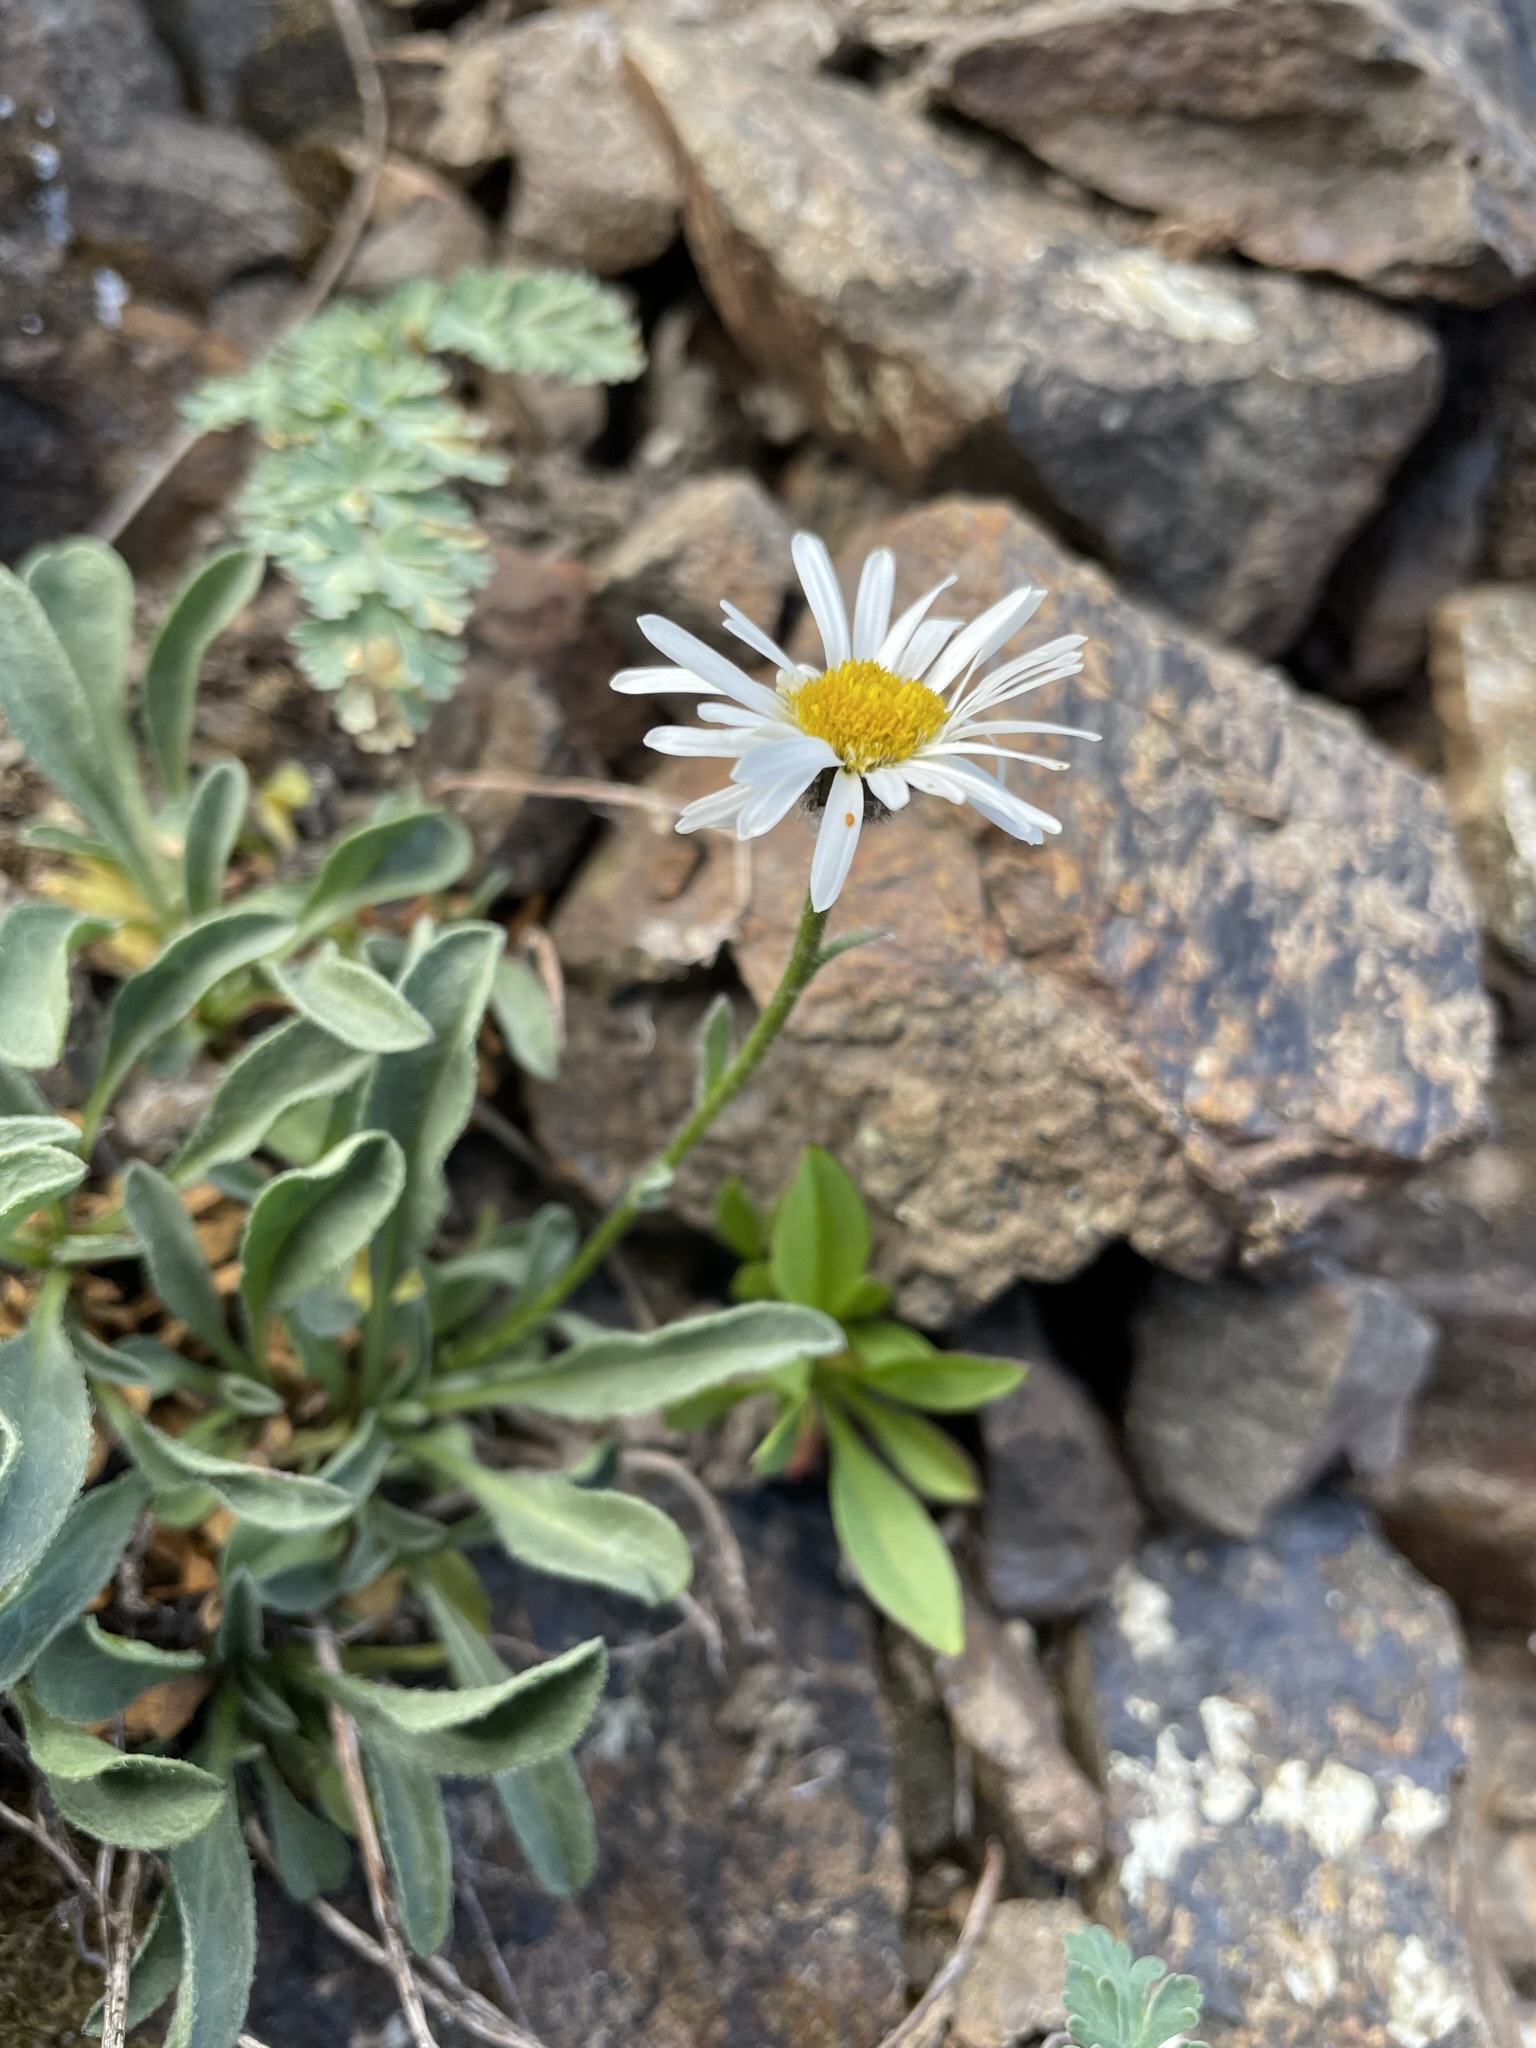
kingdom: Plantae
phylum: Tracheophyta
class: Magnoliopsida
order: Asterales
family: Asteraceae
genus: Erigeron
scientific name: Erigeron flettii
